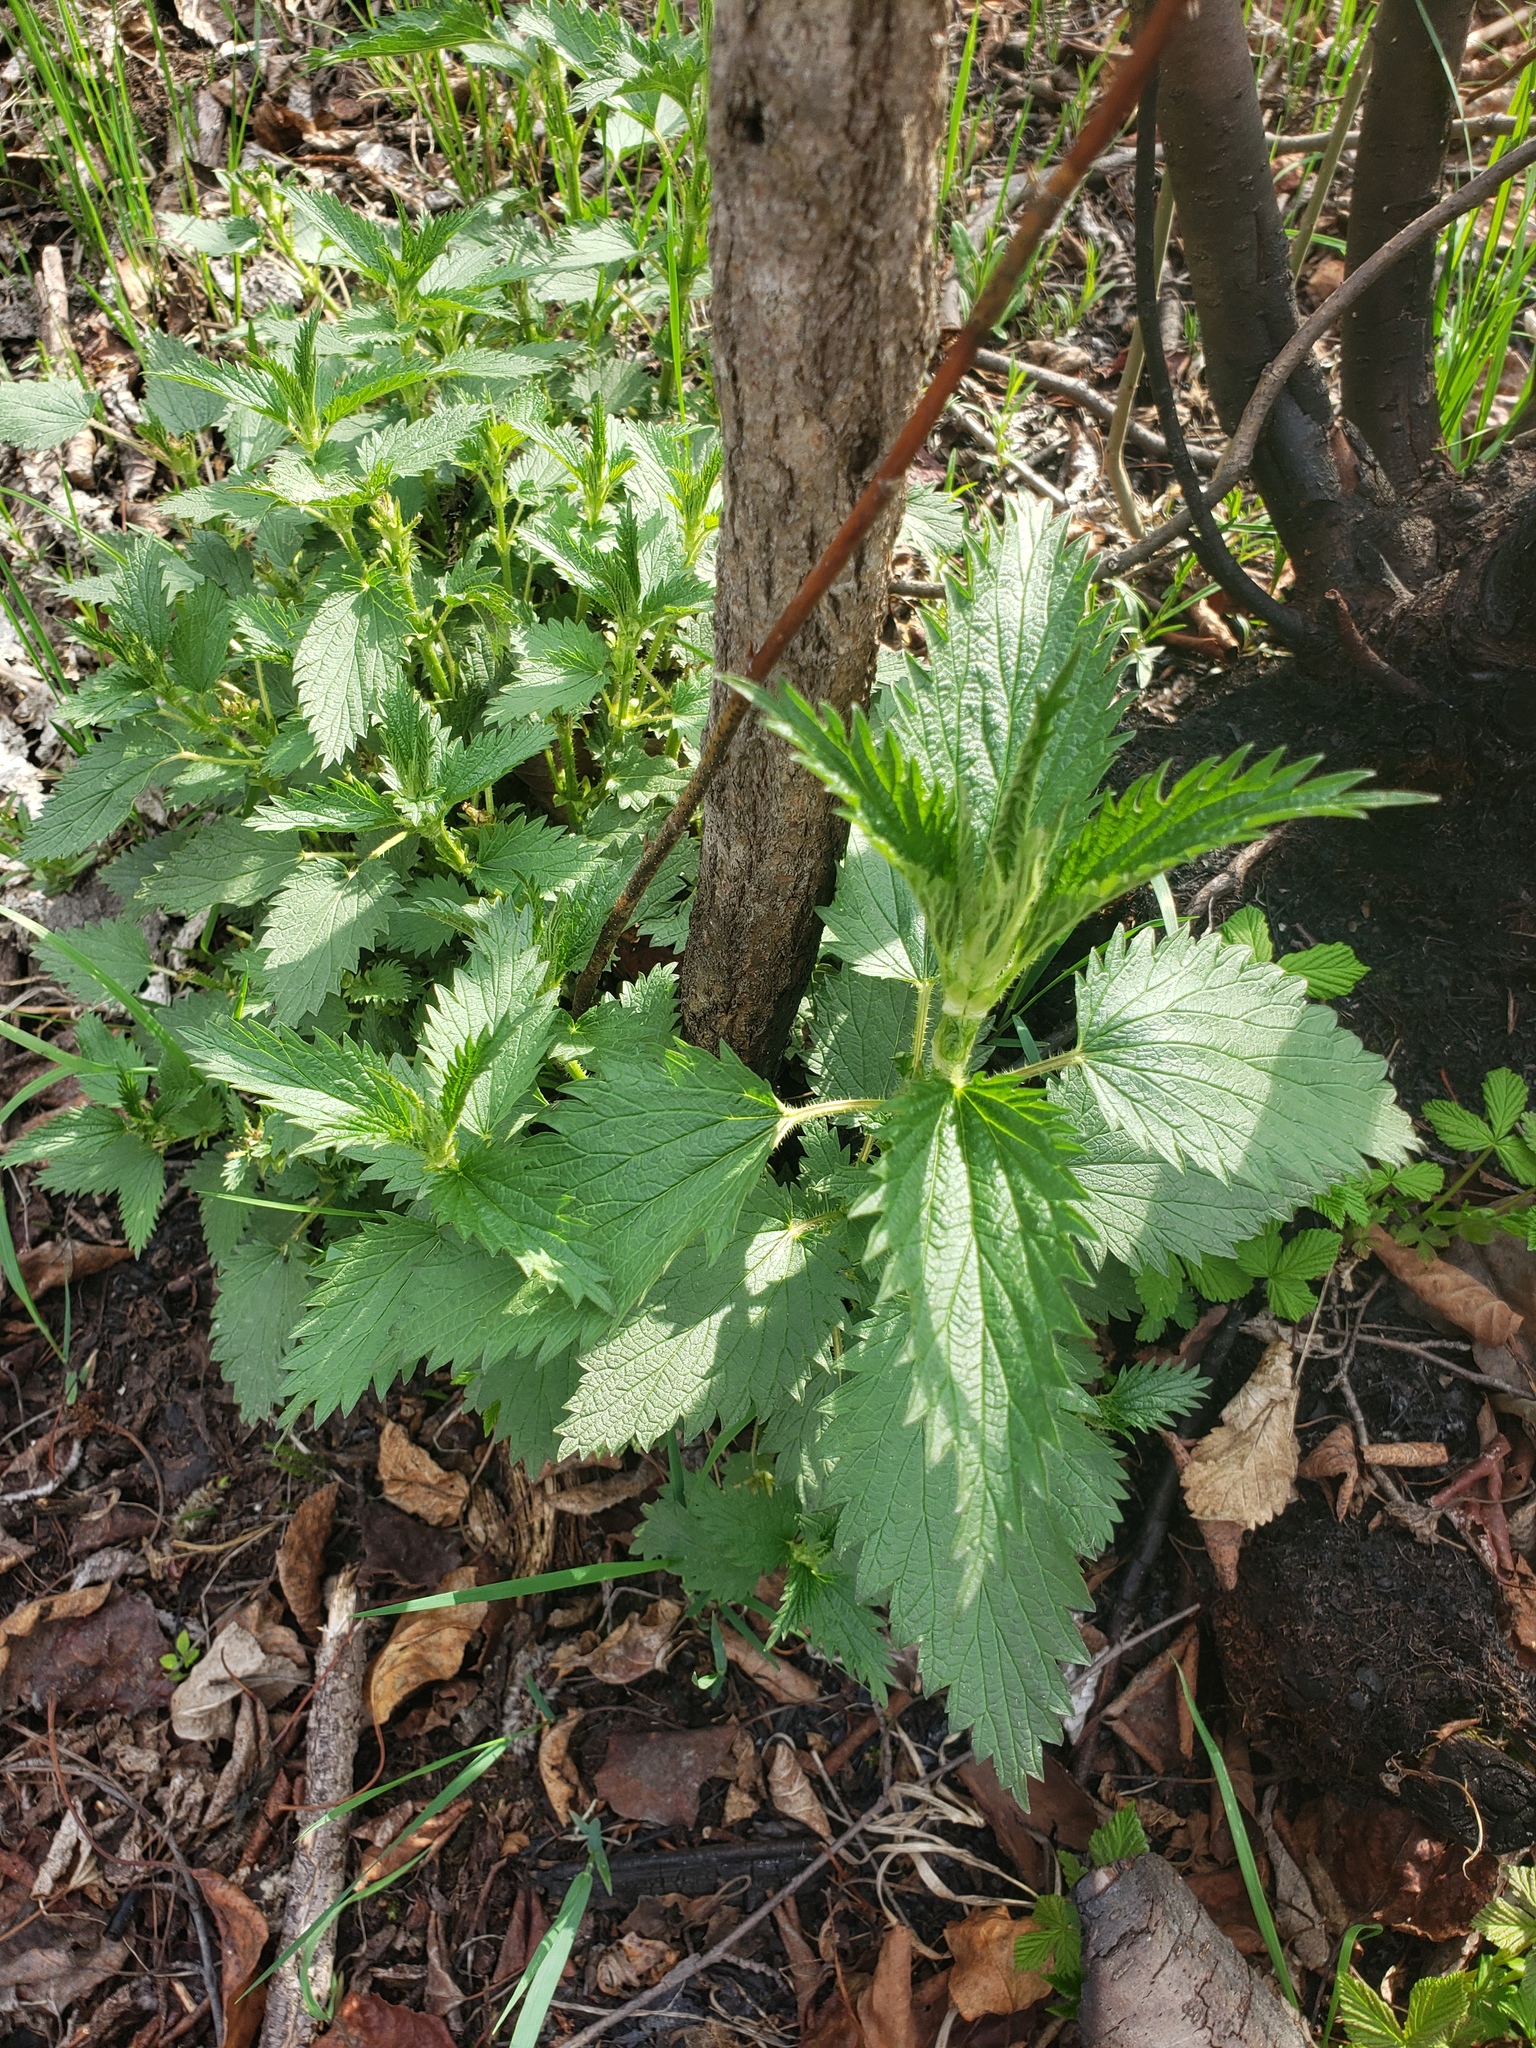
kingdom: Plantae
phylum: Tracheophyta
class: Magnoliopsida
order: Rosales
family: Urticaceae
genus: Urtica
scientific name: Urtica gracilis
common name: Slender stinging nettle
